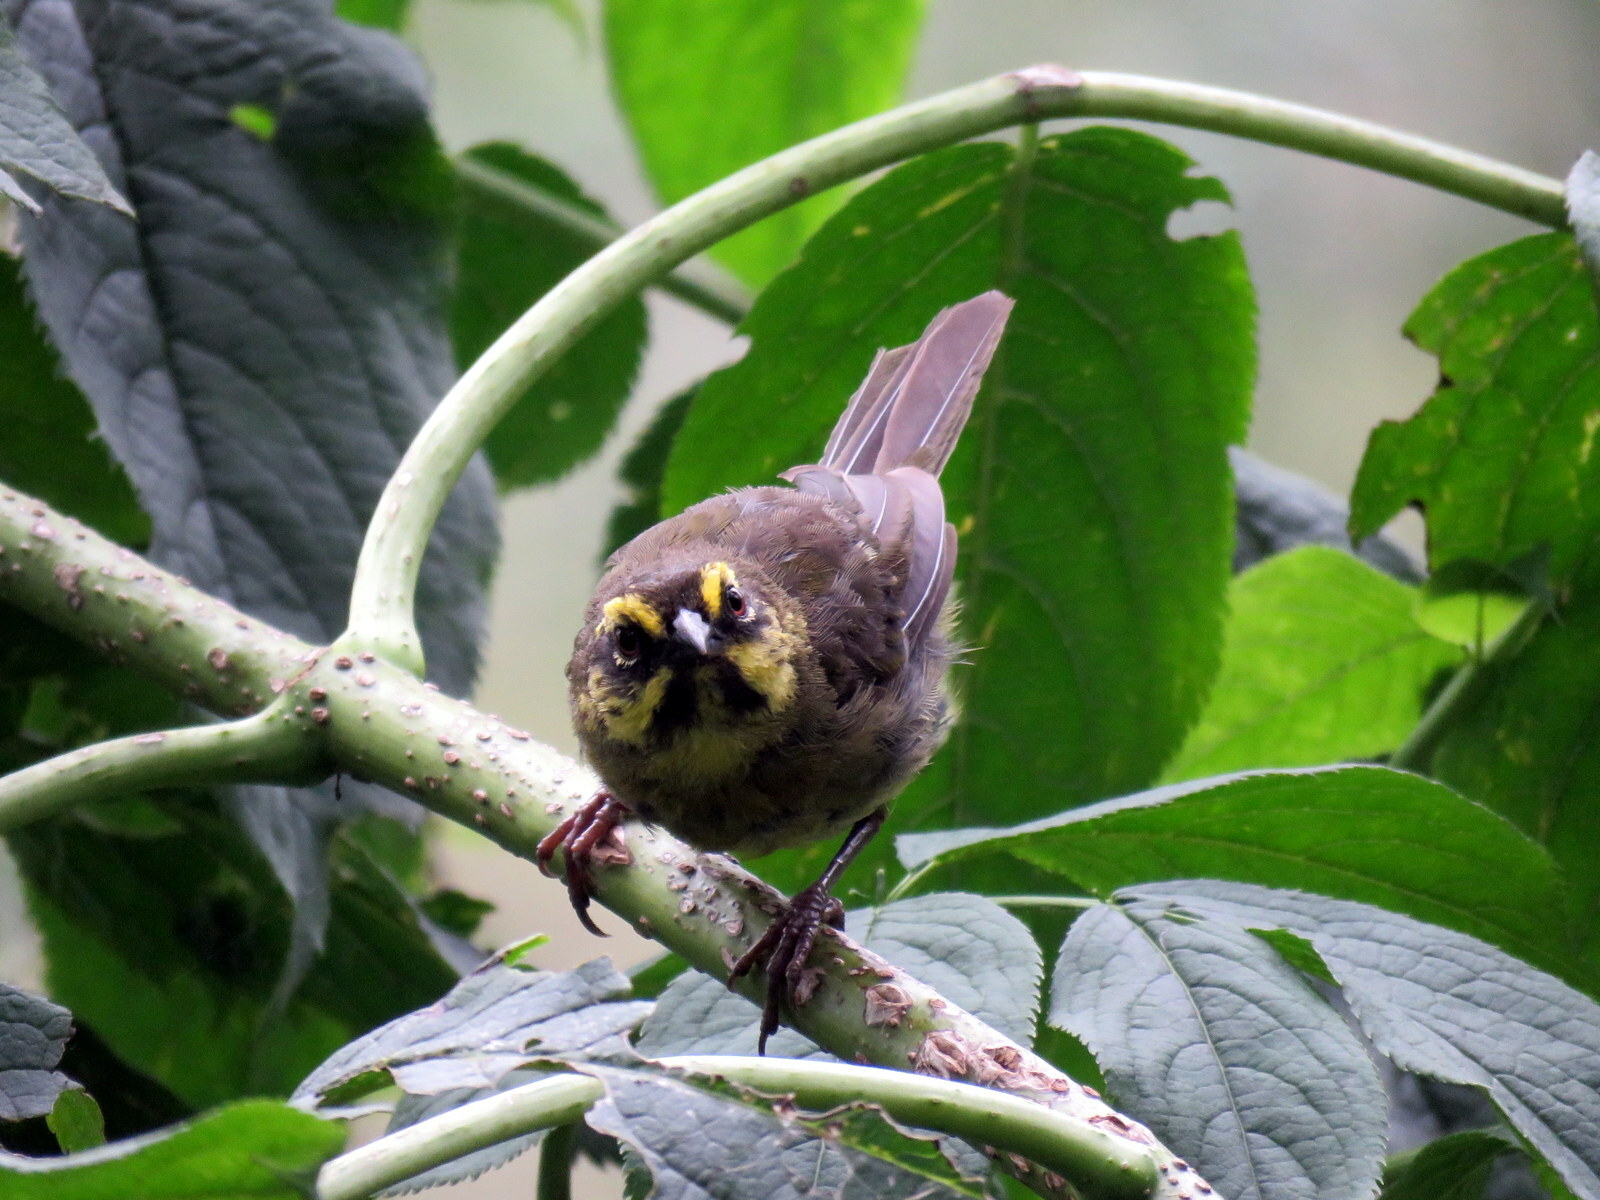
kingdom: Animalia
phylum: Chordata
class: Aves
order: Passeriformes
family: Passerellidae
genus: Atlapetes
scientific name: Atlapetes citrinellus
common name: Yellow-striped brushfinch
